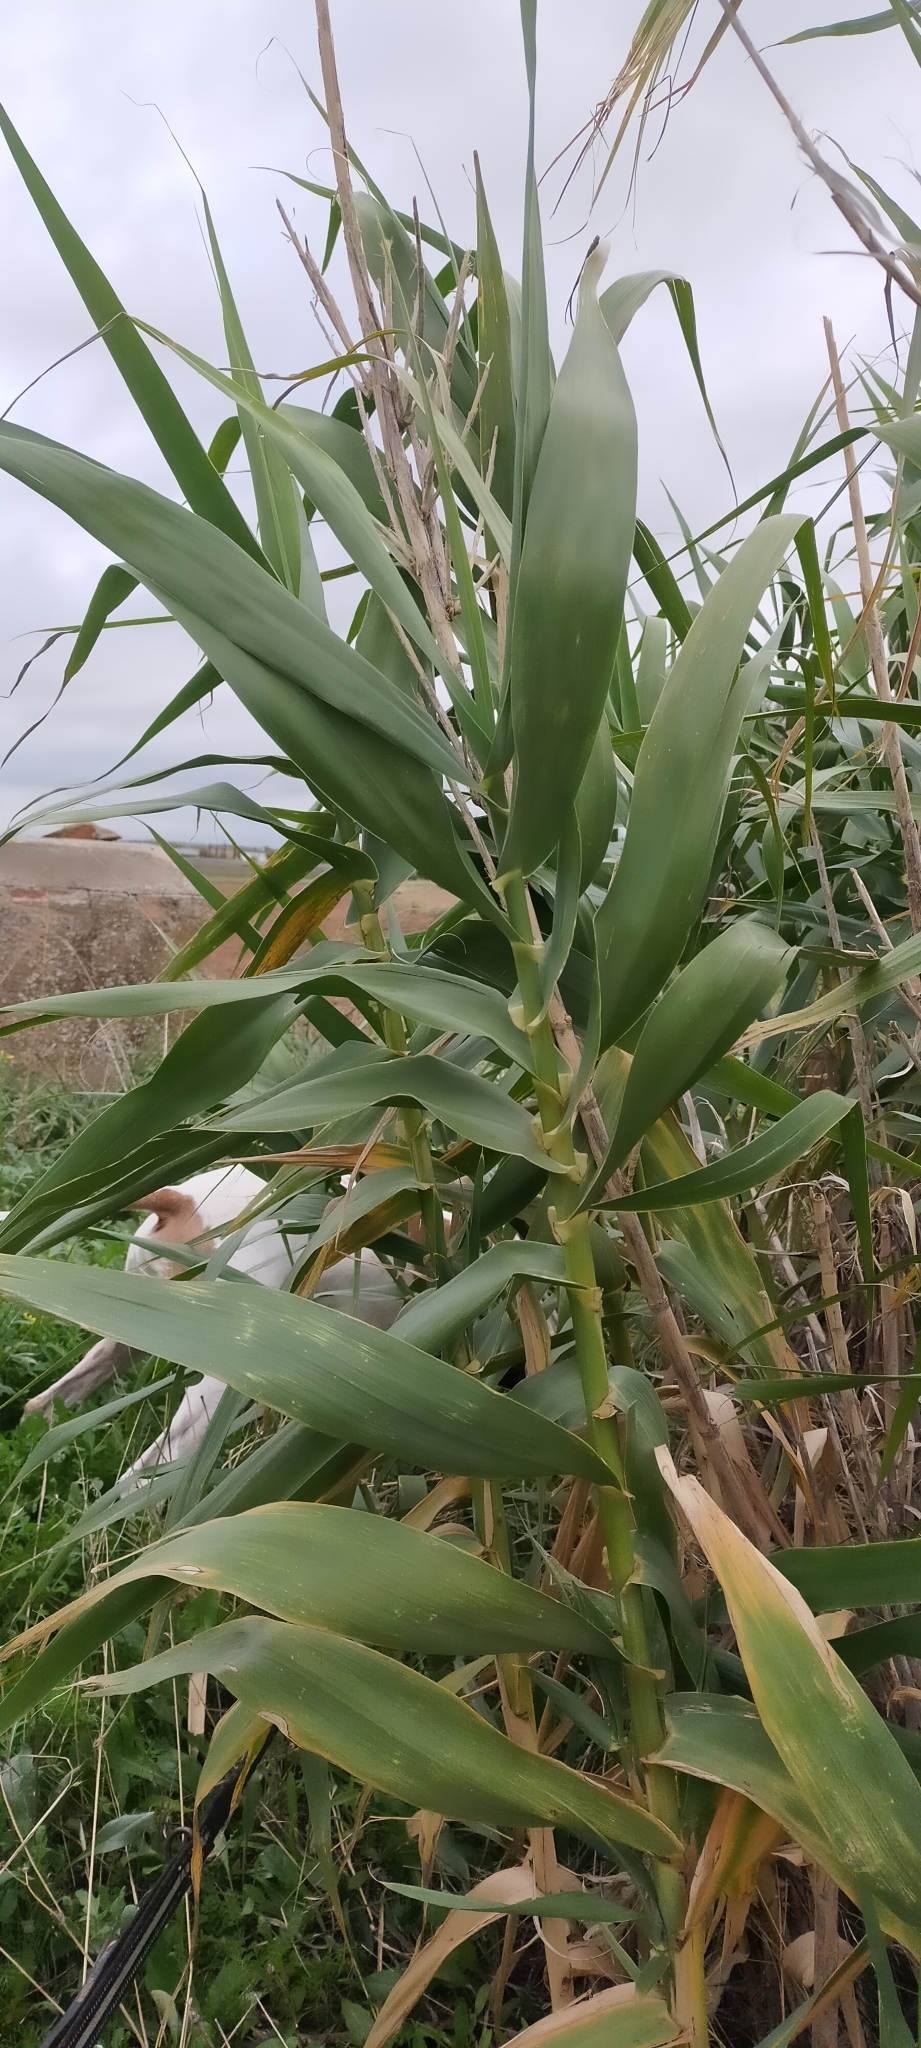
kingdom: Plantae
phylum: Tracheophyta
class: Liliopsida
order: Poales
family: Poaceae
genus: Arundo
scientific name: Arundo donax
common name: Giant reed
